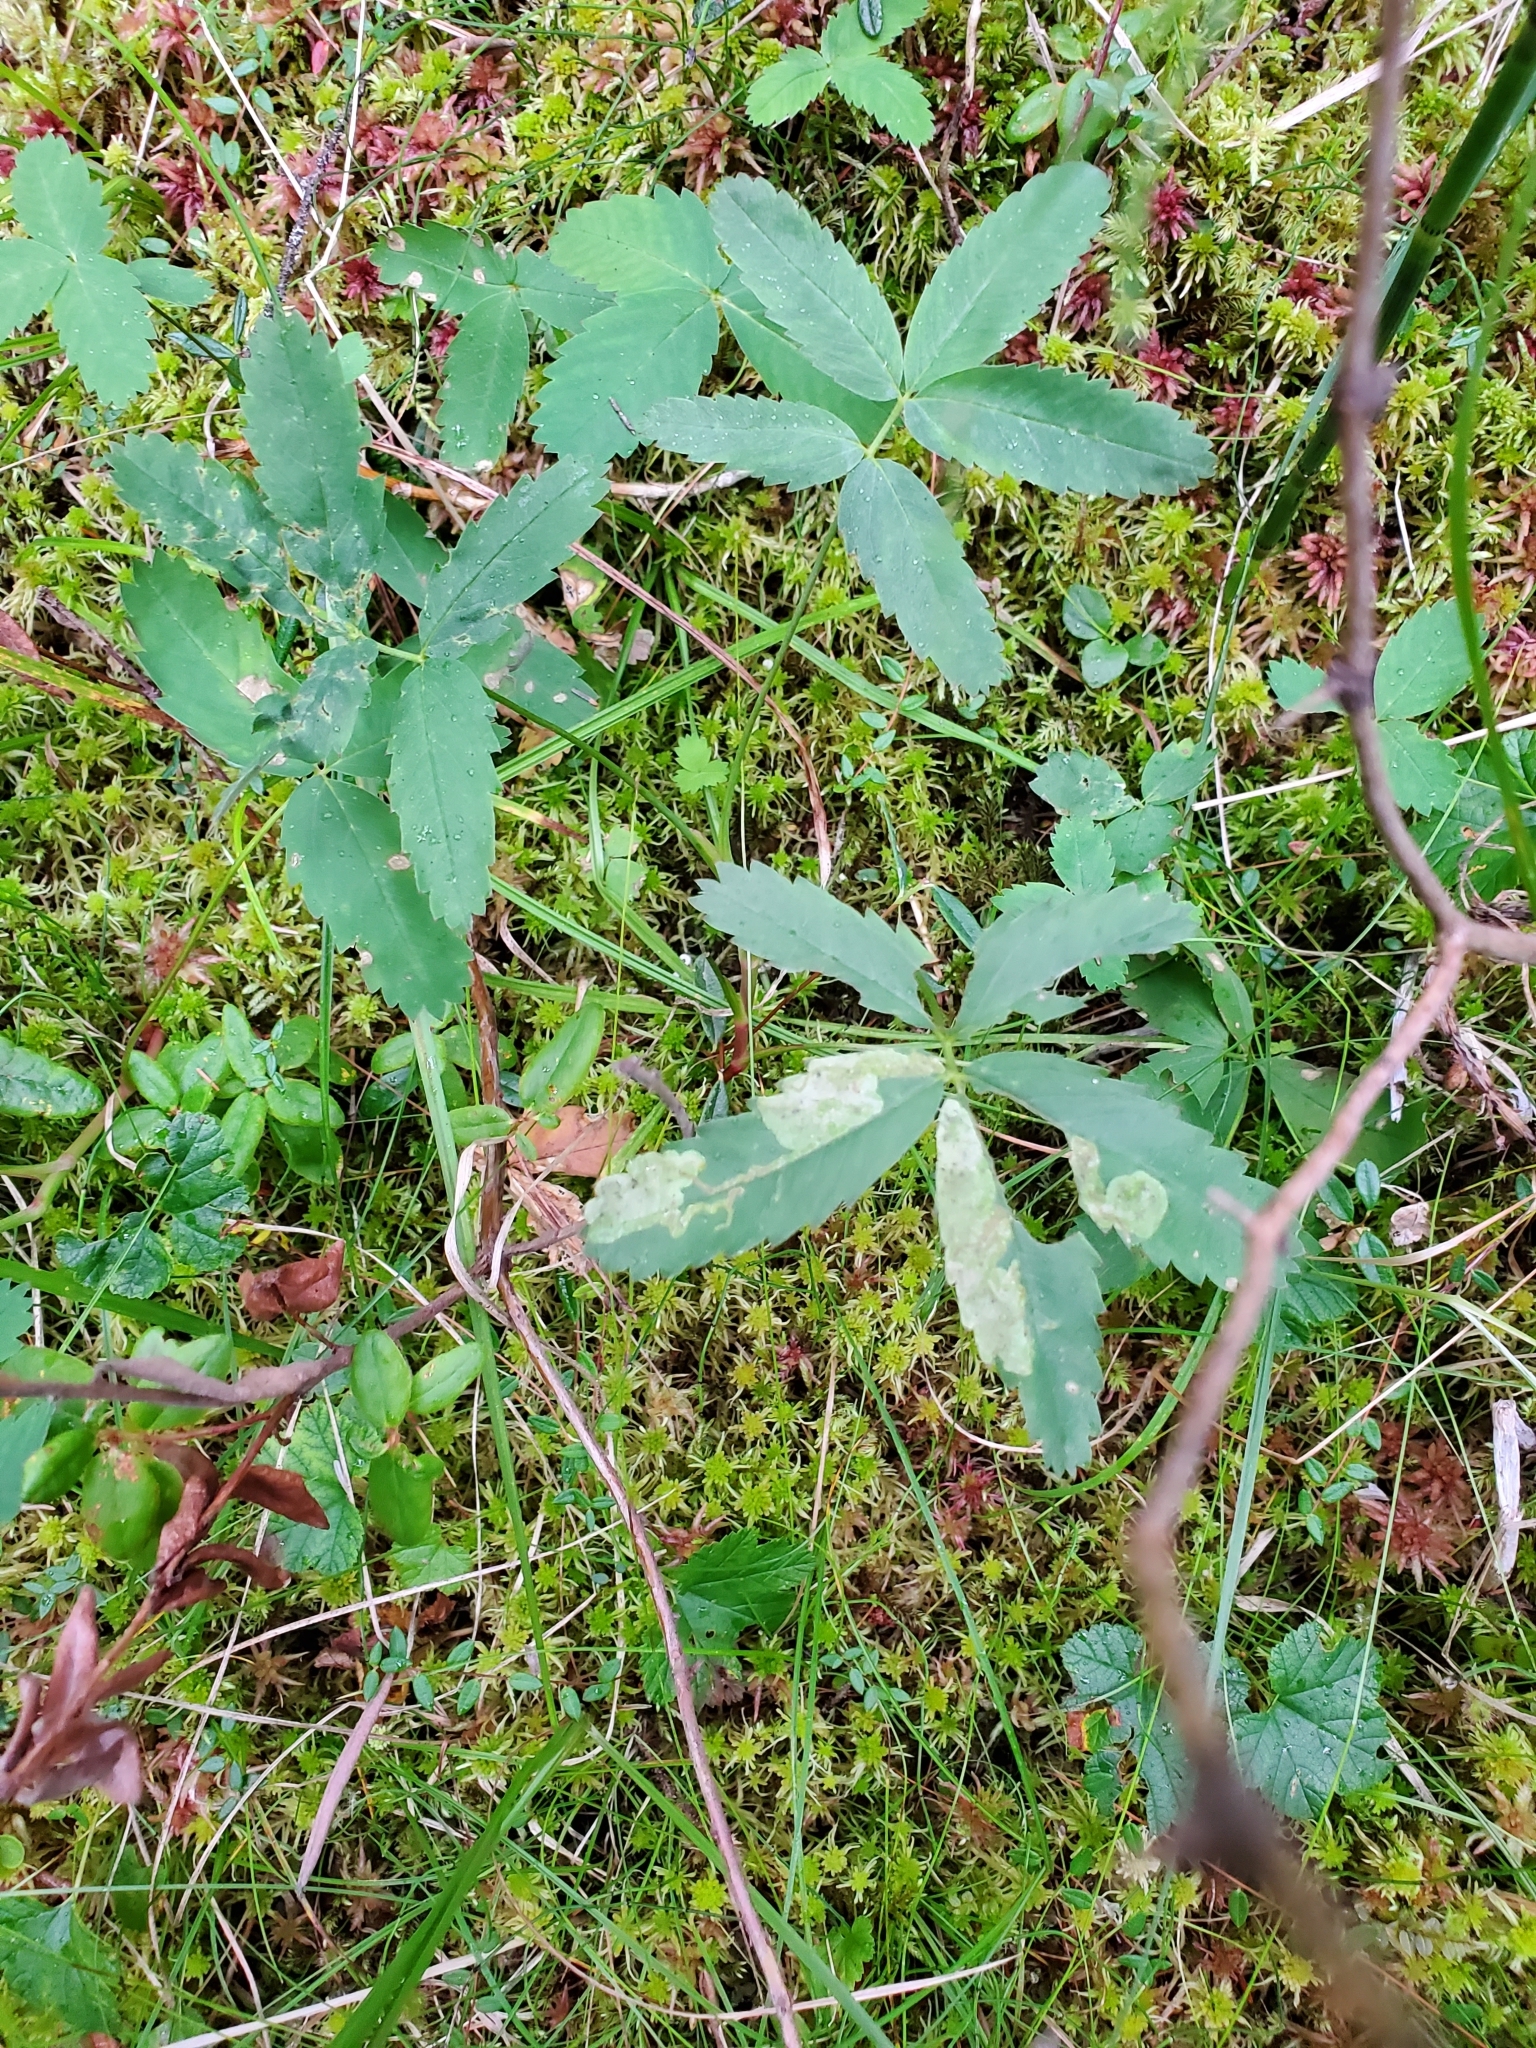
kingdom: Plantae
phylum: Tracheophyta
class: Magnoliopsida
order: Rosales
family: Rosaceae
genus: Comarum
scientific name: Comarum palustre
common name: Marsh cinquefoil
